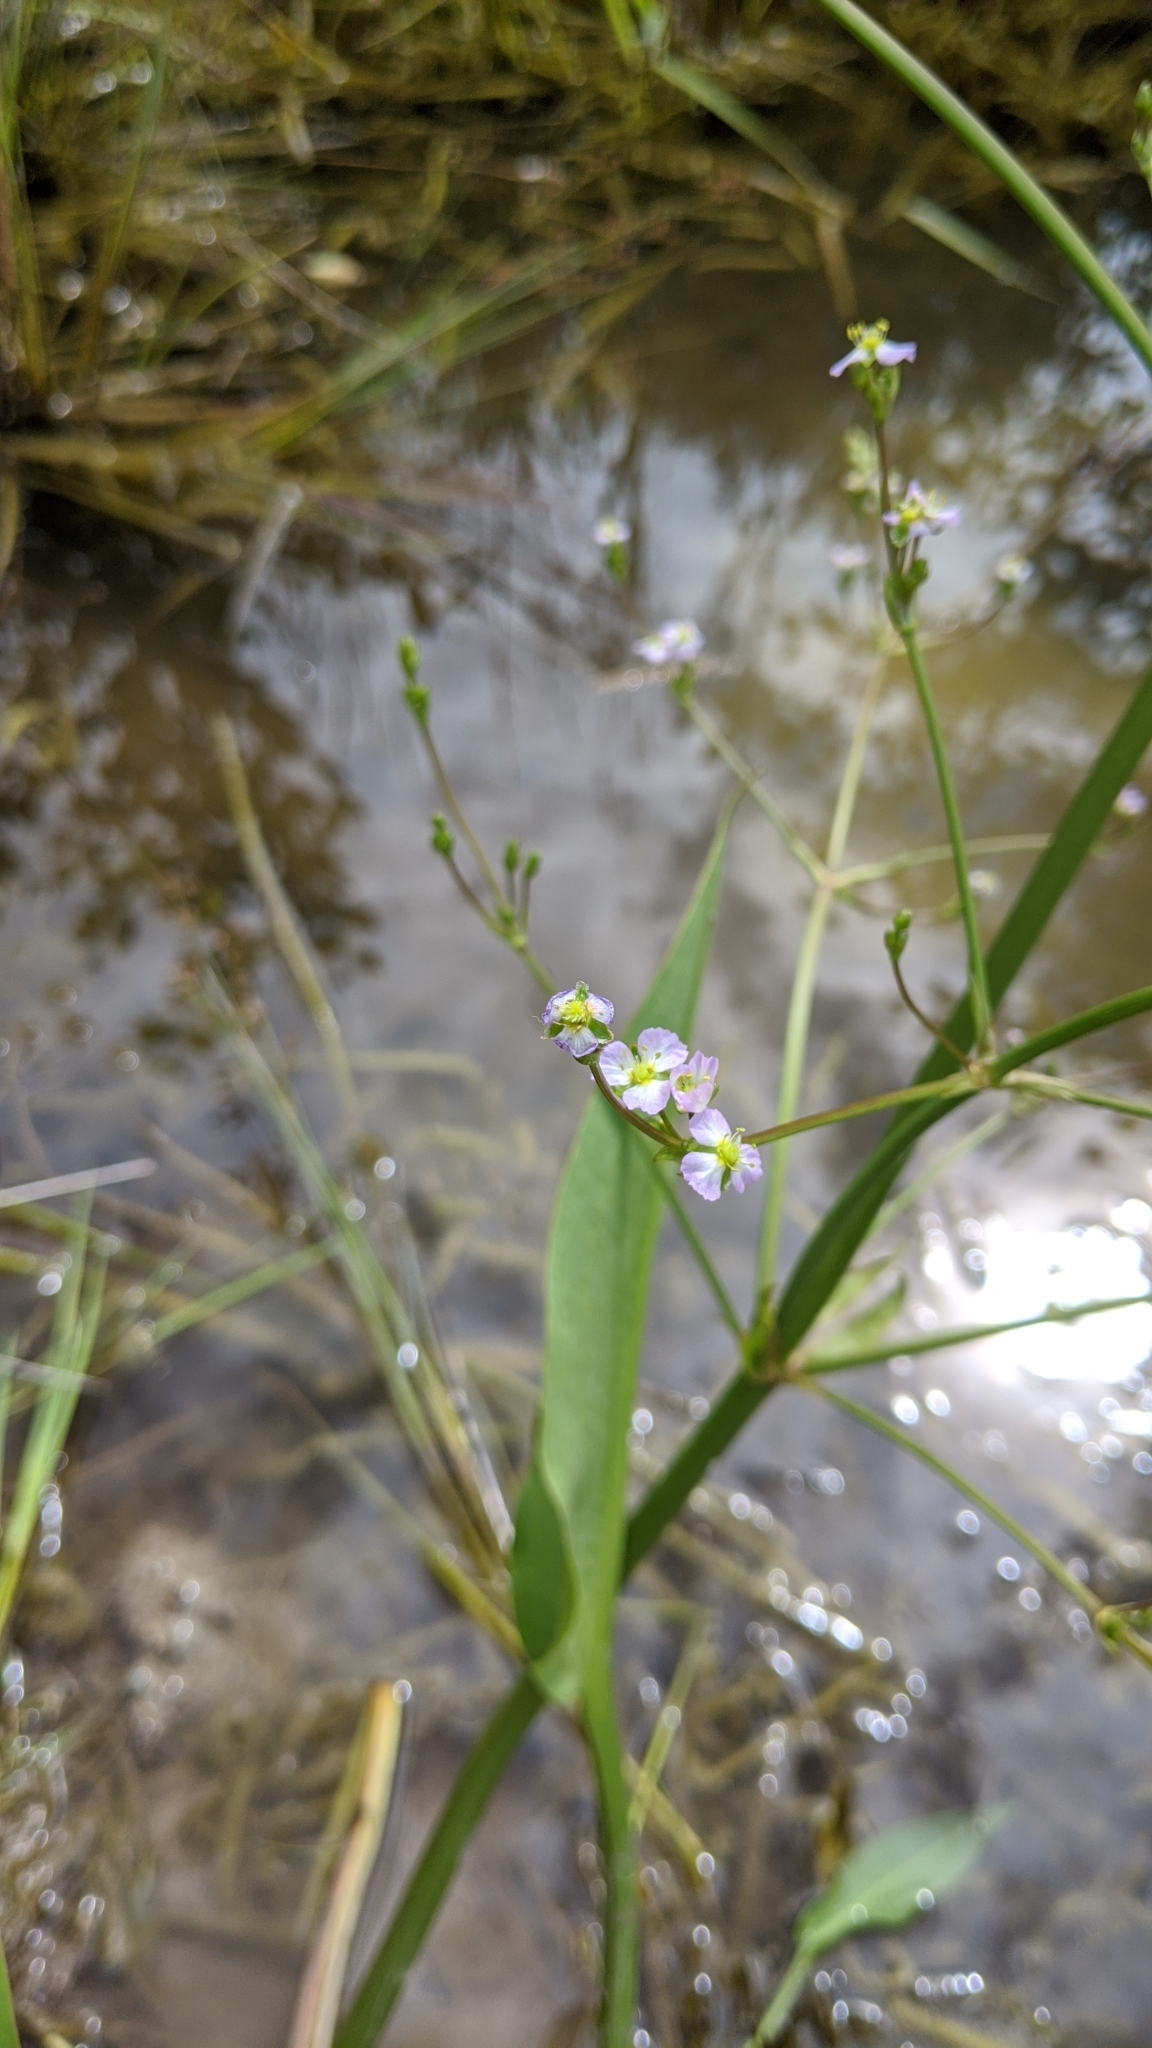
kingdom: Plantae
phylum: Tracheophyta
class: Liliopsida
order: Alismatales
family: Alismataceae
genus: Alisma
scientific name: Alisma triviale
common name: Northern water-plantain
